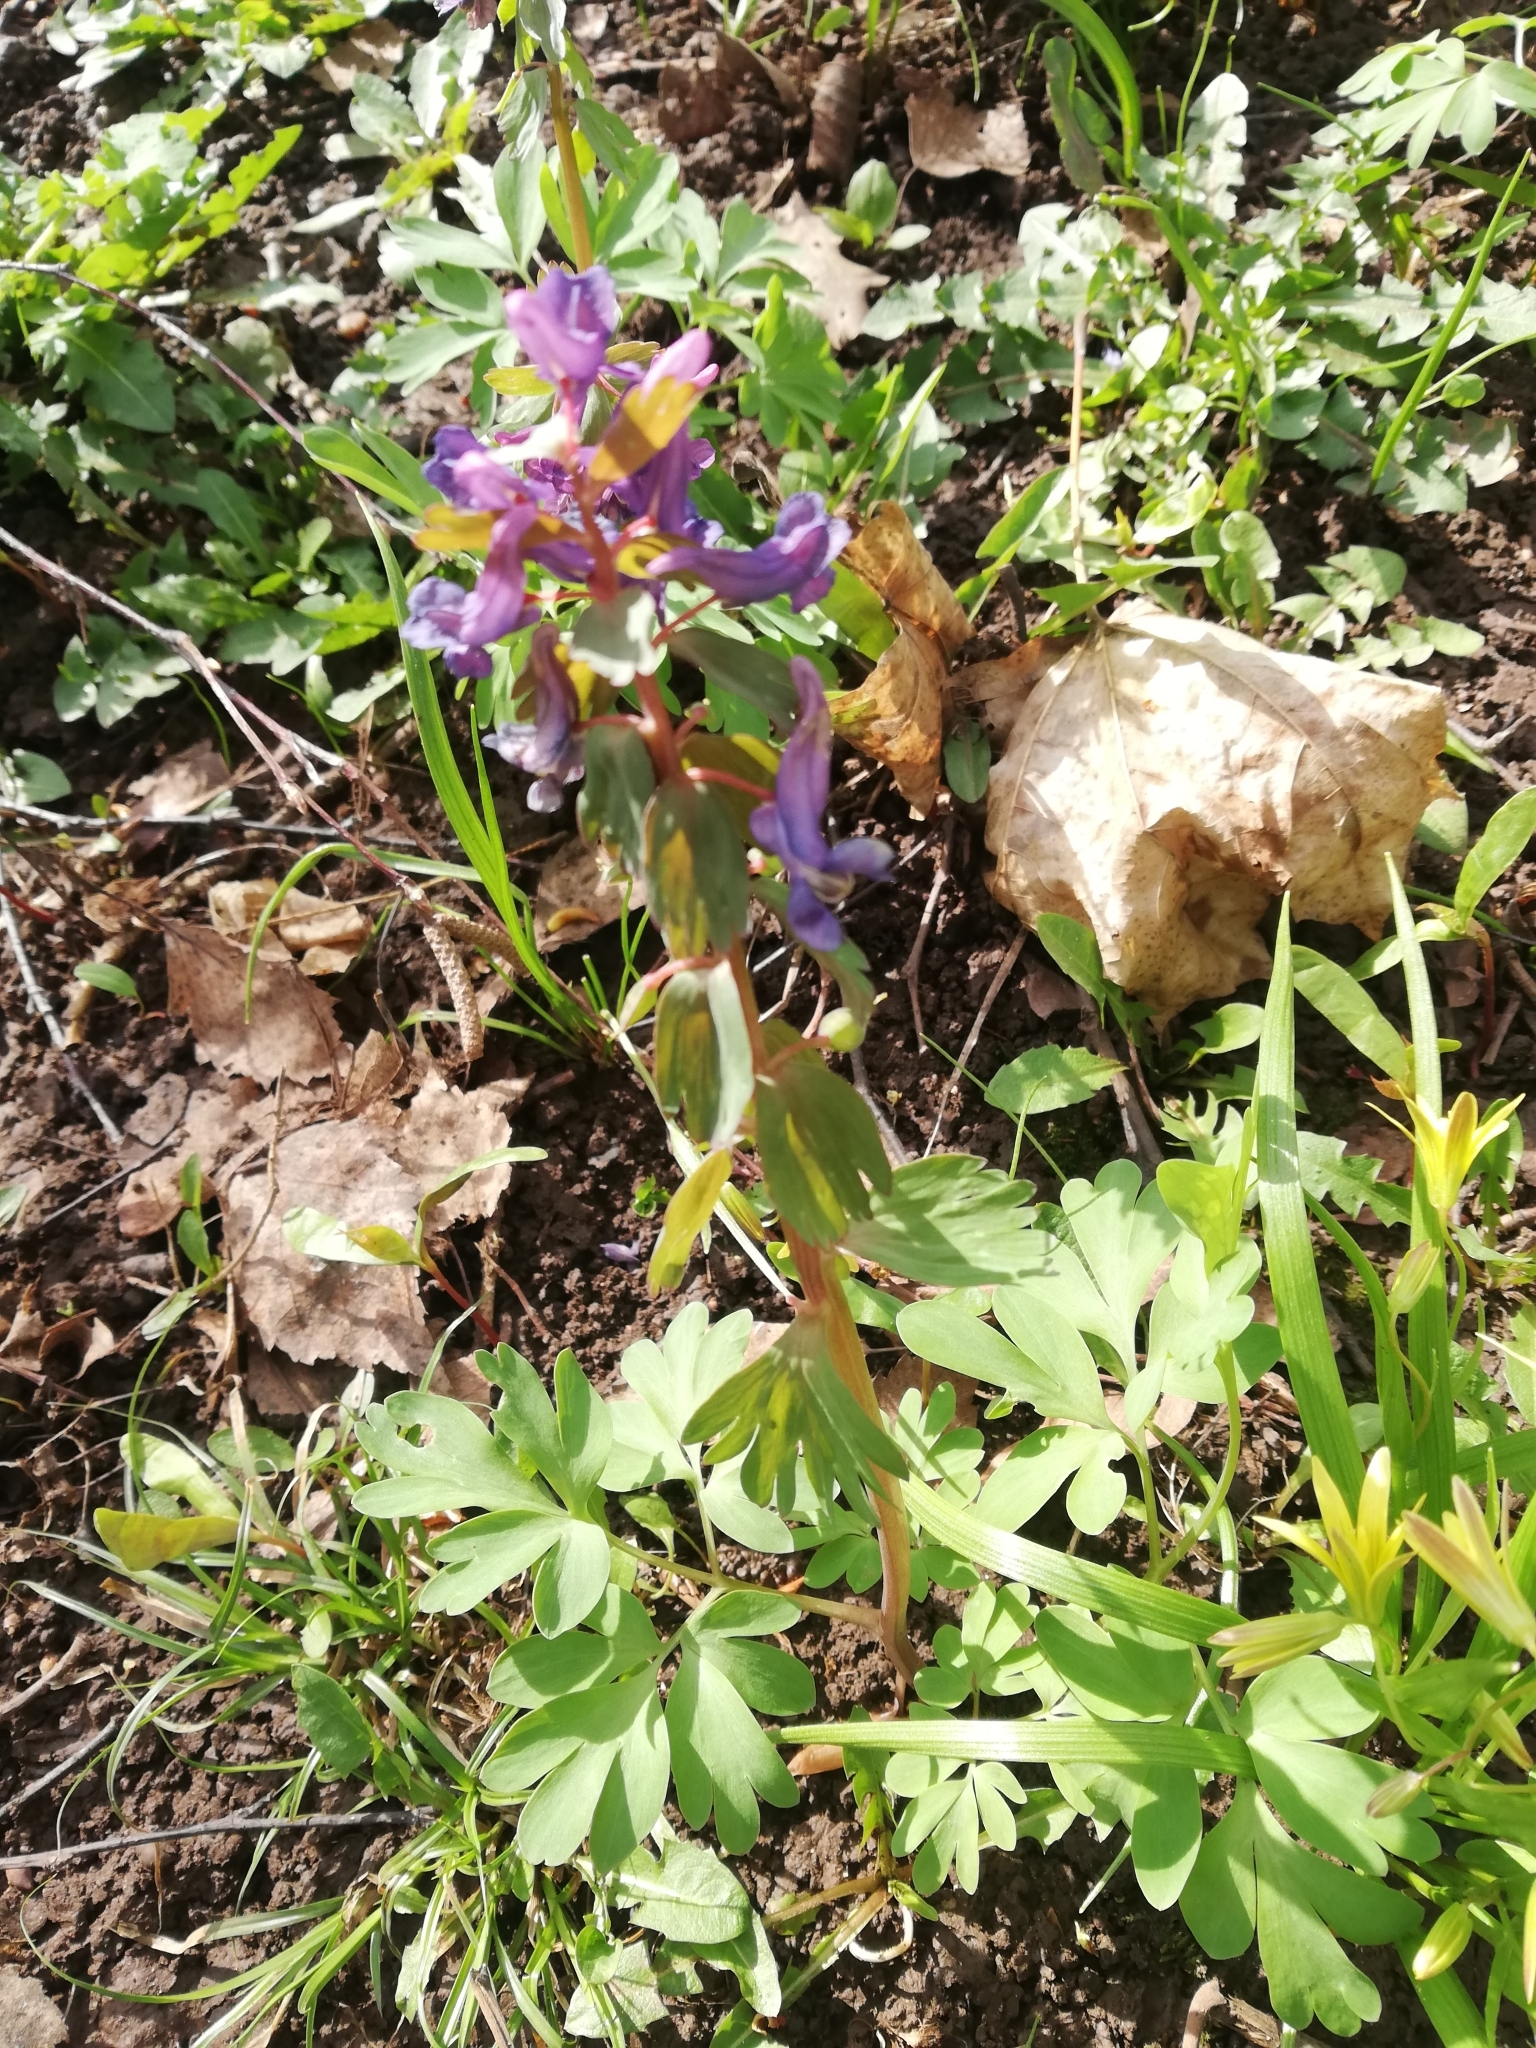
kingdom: Plantae
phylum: Tracheophyta
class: Magnoliopsida
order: Ranunculales
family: Papaveraceae
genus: Corydalis
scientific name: Corydalis solida
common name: Bird-in-a-bush
